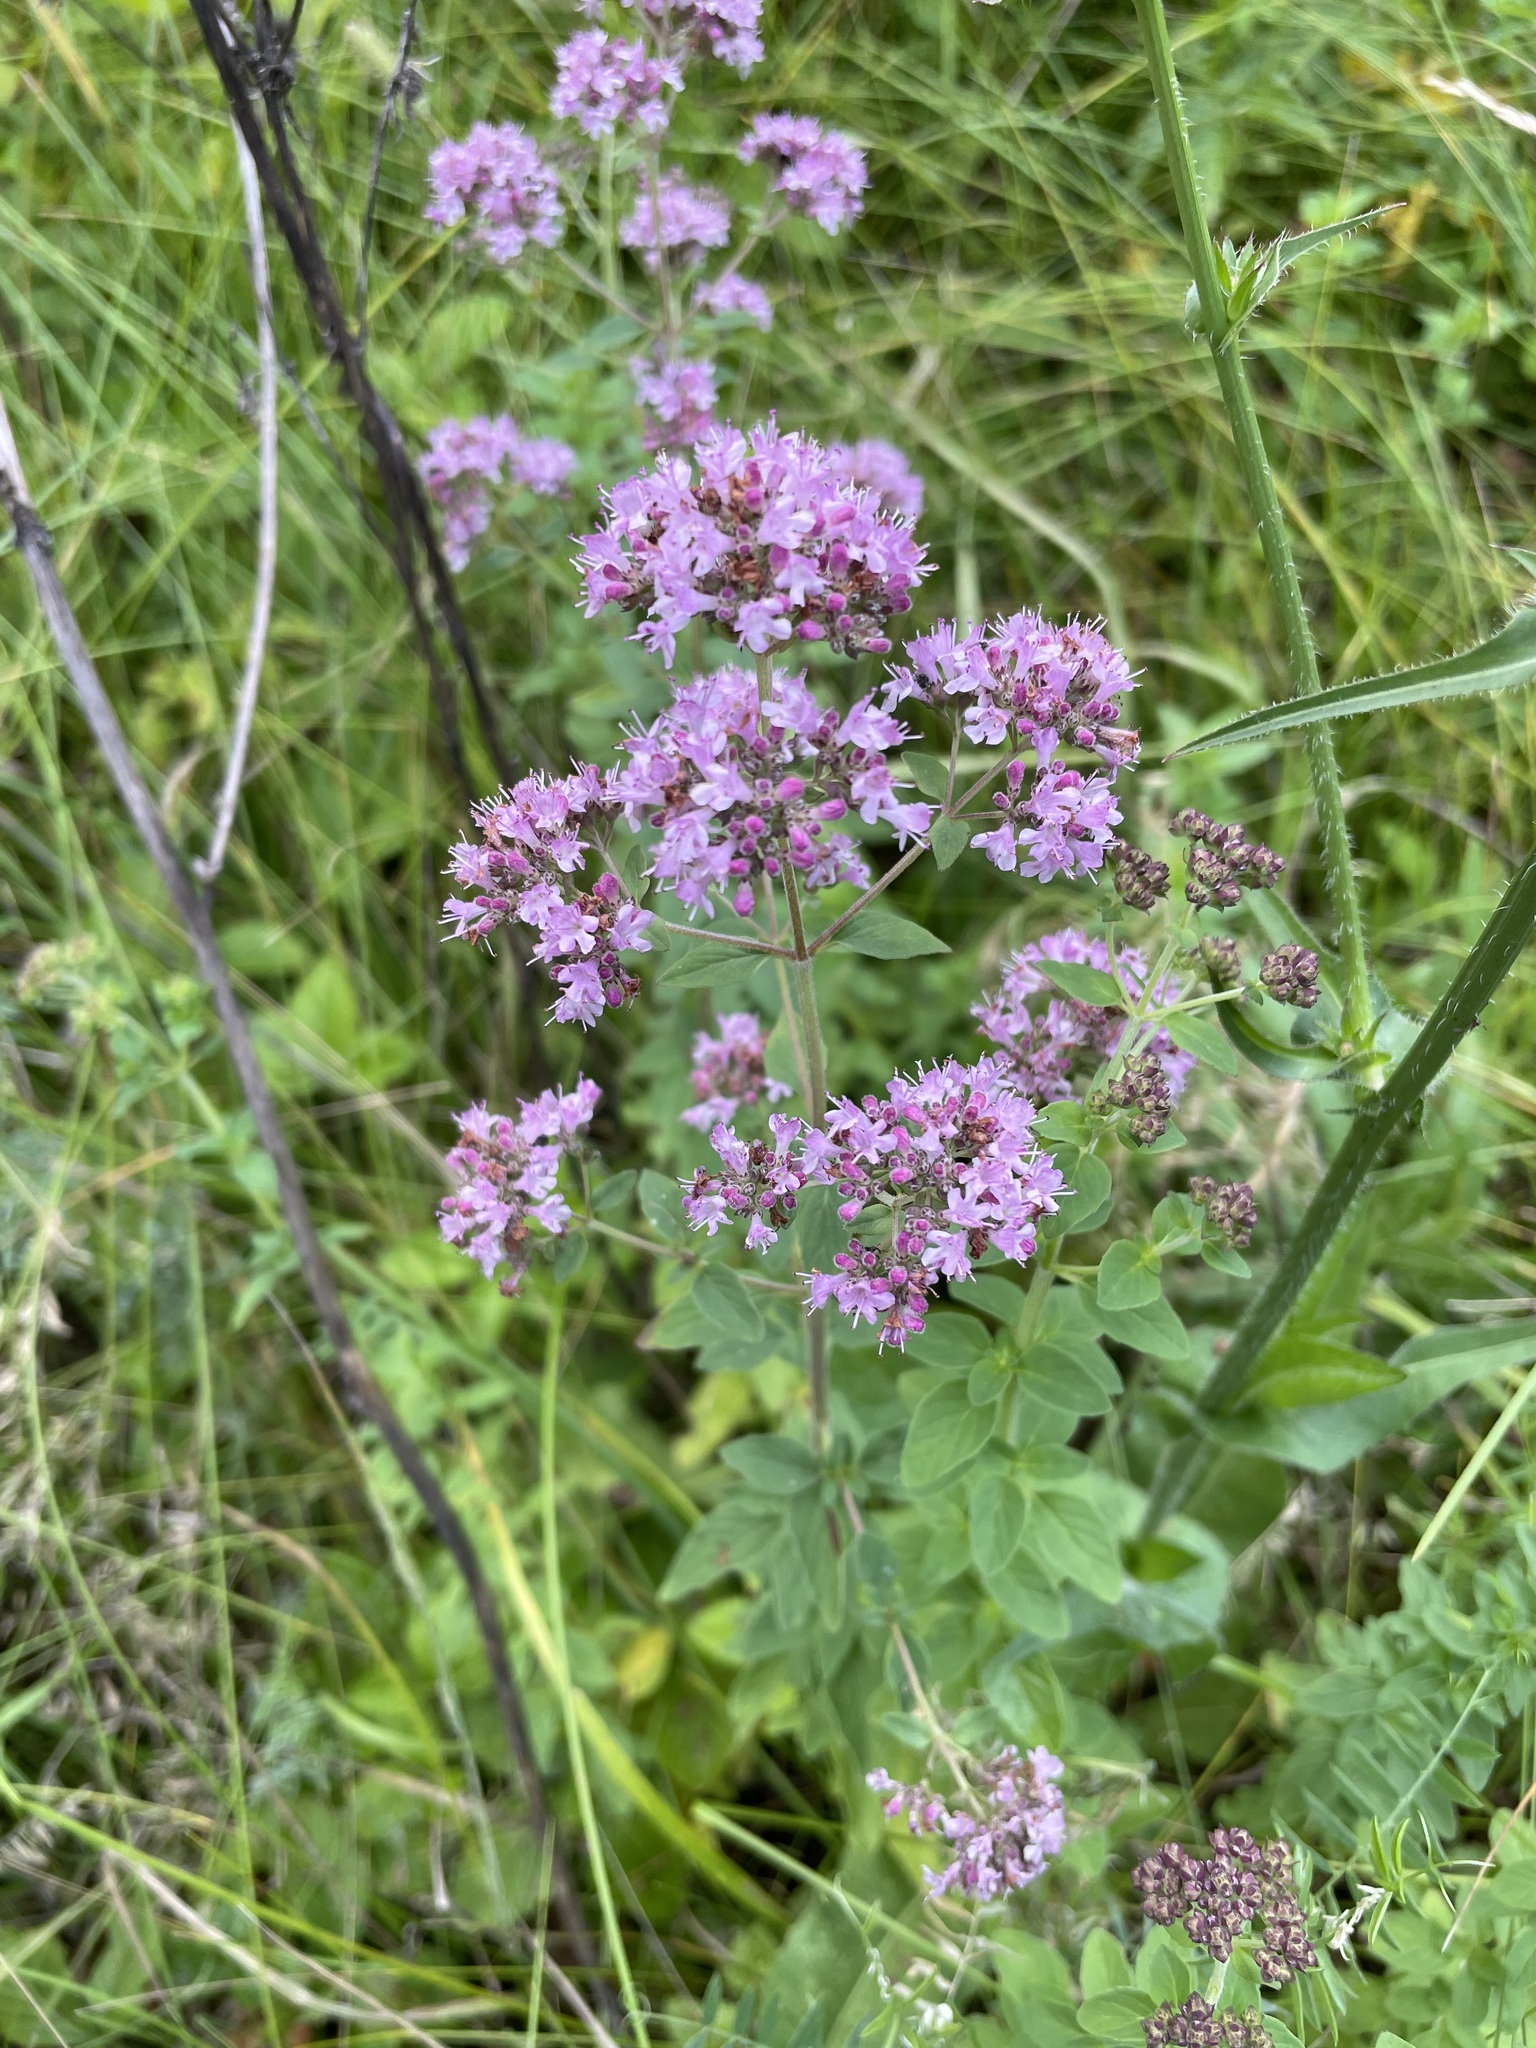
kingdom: Plantae
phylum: Tracheophyta
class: Magnoliopsida
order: Lamiales
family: Lamiaceae
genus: Origanum
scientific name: Origanum vulgare
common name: Wild marjoram
